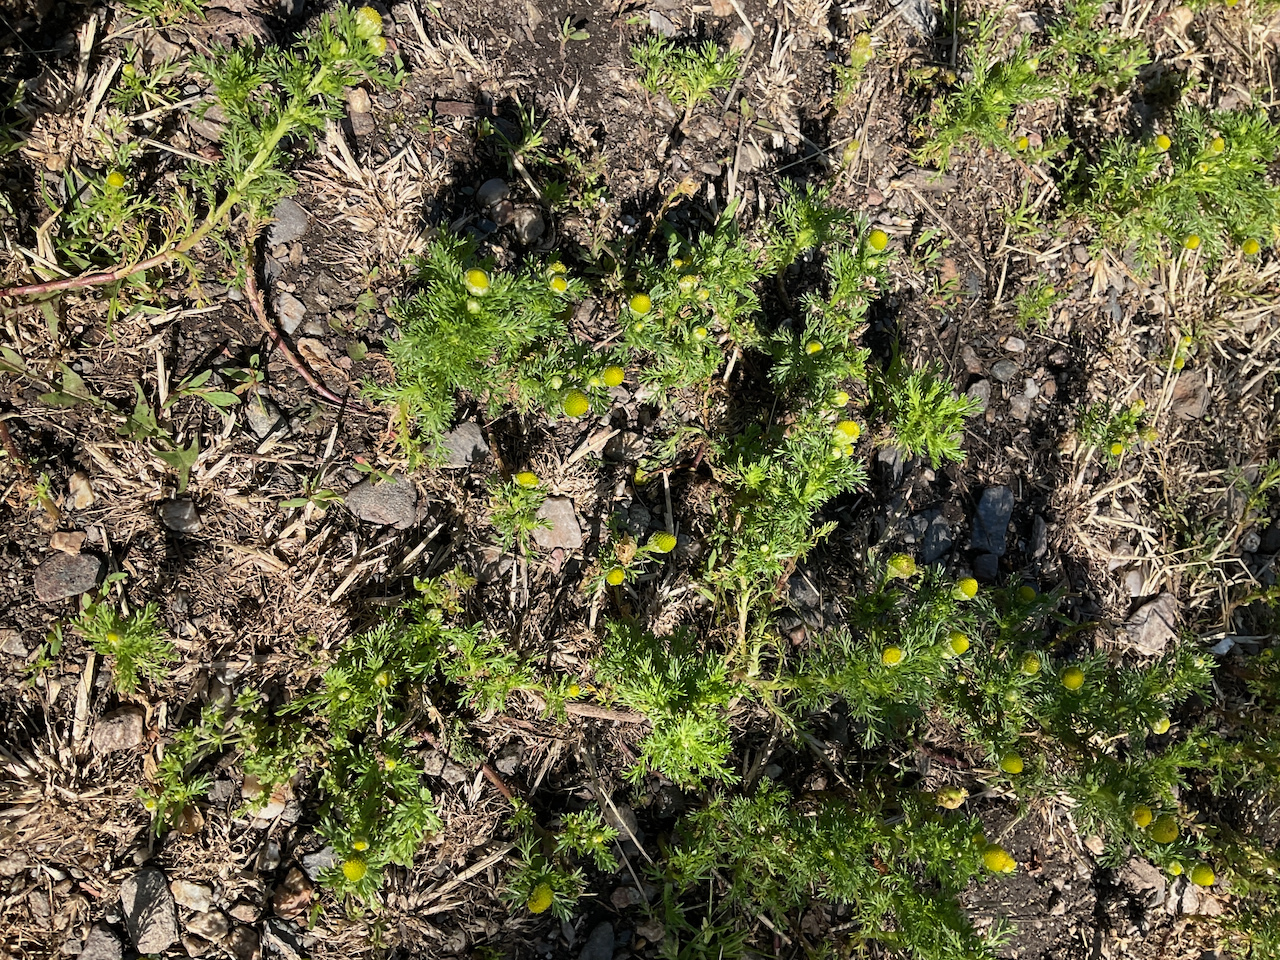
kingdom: Plantae
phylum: Tracheophyta
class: Magnoliopsida
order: Asterales
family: Asteraceae
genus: Matricaria
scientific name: Matricaria discoidea
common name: Disc mayweed
